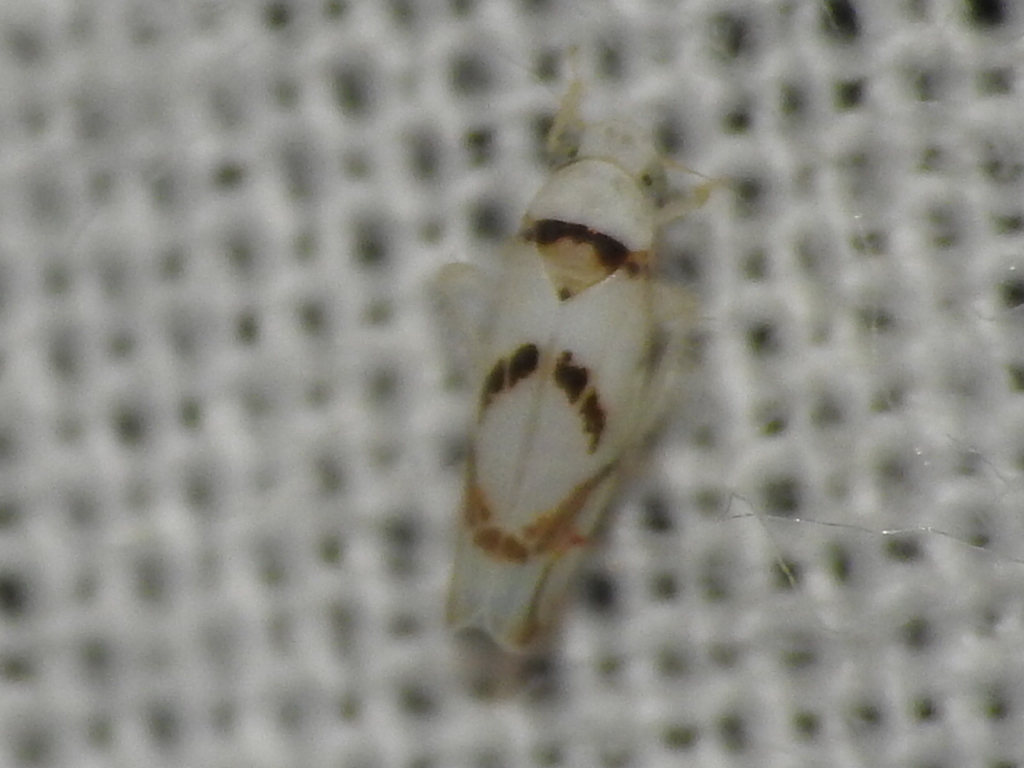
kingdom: Animalia
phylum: Arthropoda
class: Insecta
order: Hemiptera
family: Cicadellidae
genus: Eratoneura
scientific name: Eratoneura lunata
